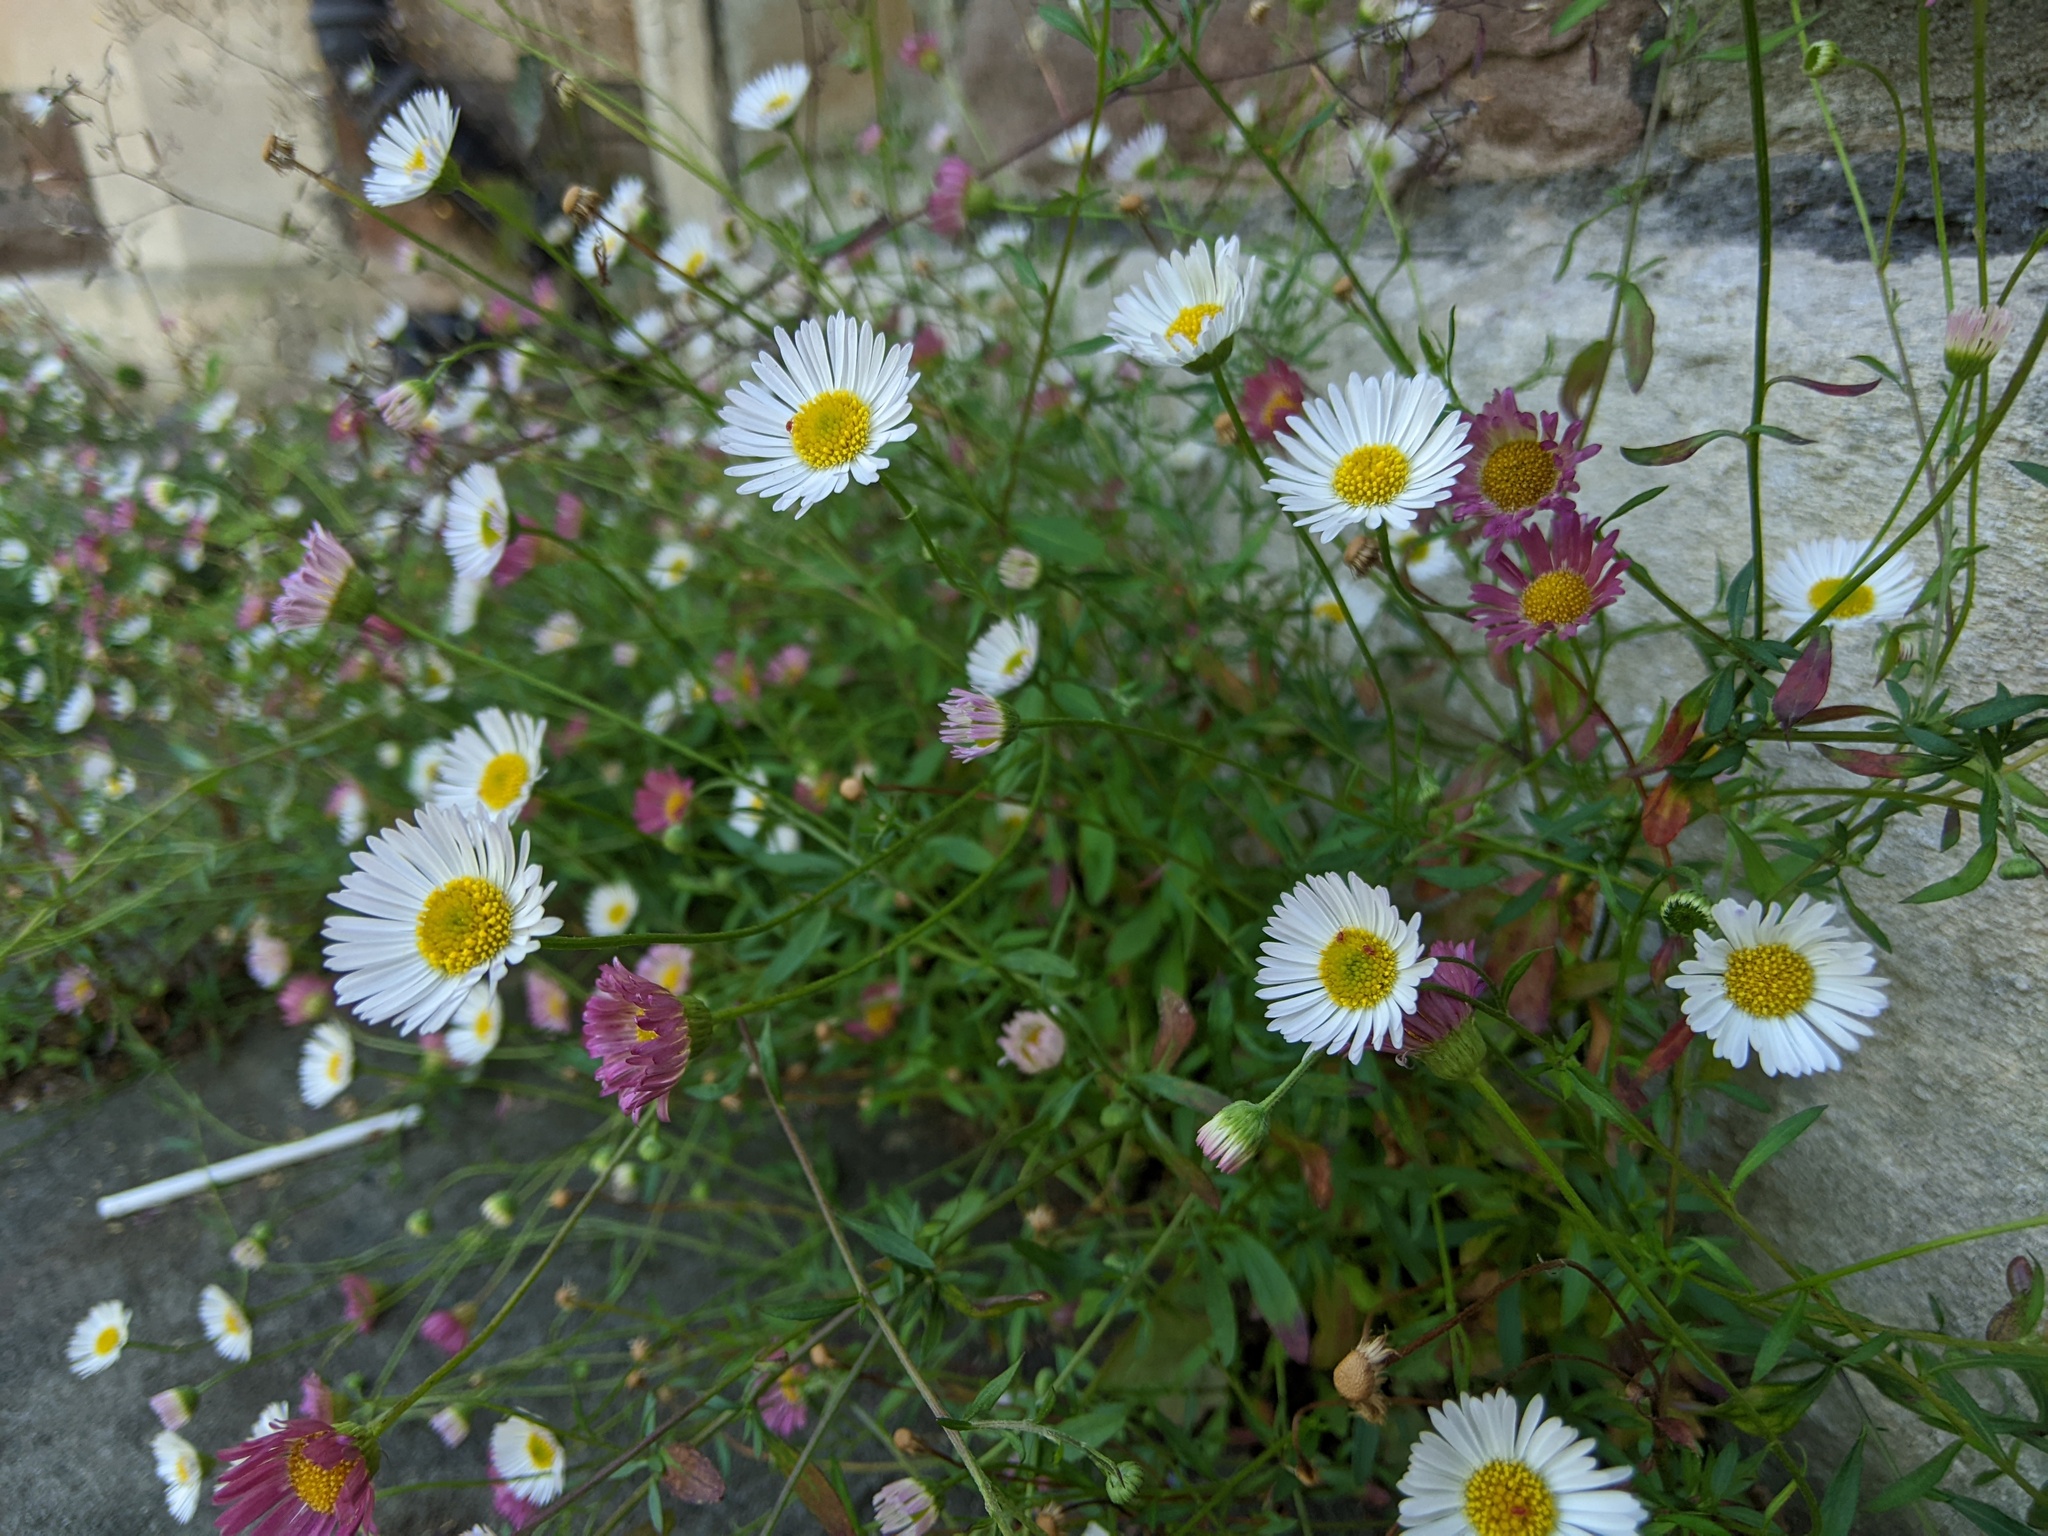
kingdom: Plantae
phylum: Tracheophyta
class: Magnoliopsida
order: Asterales
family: Asteraceae
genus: Erigeron
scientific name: Erigeron karvinskianus
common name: Mexican fleabane
